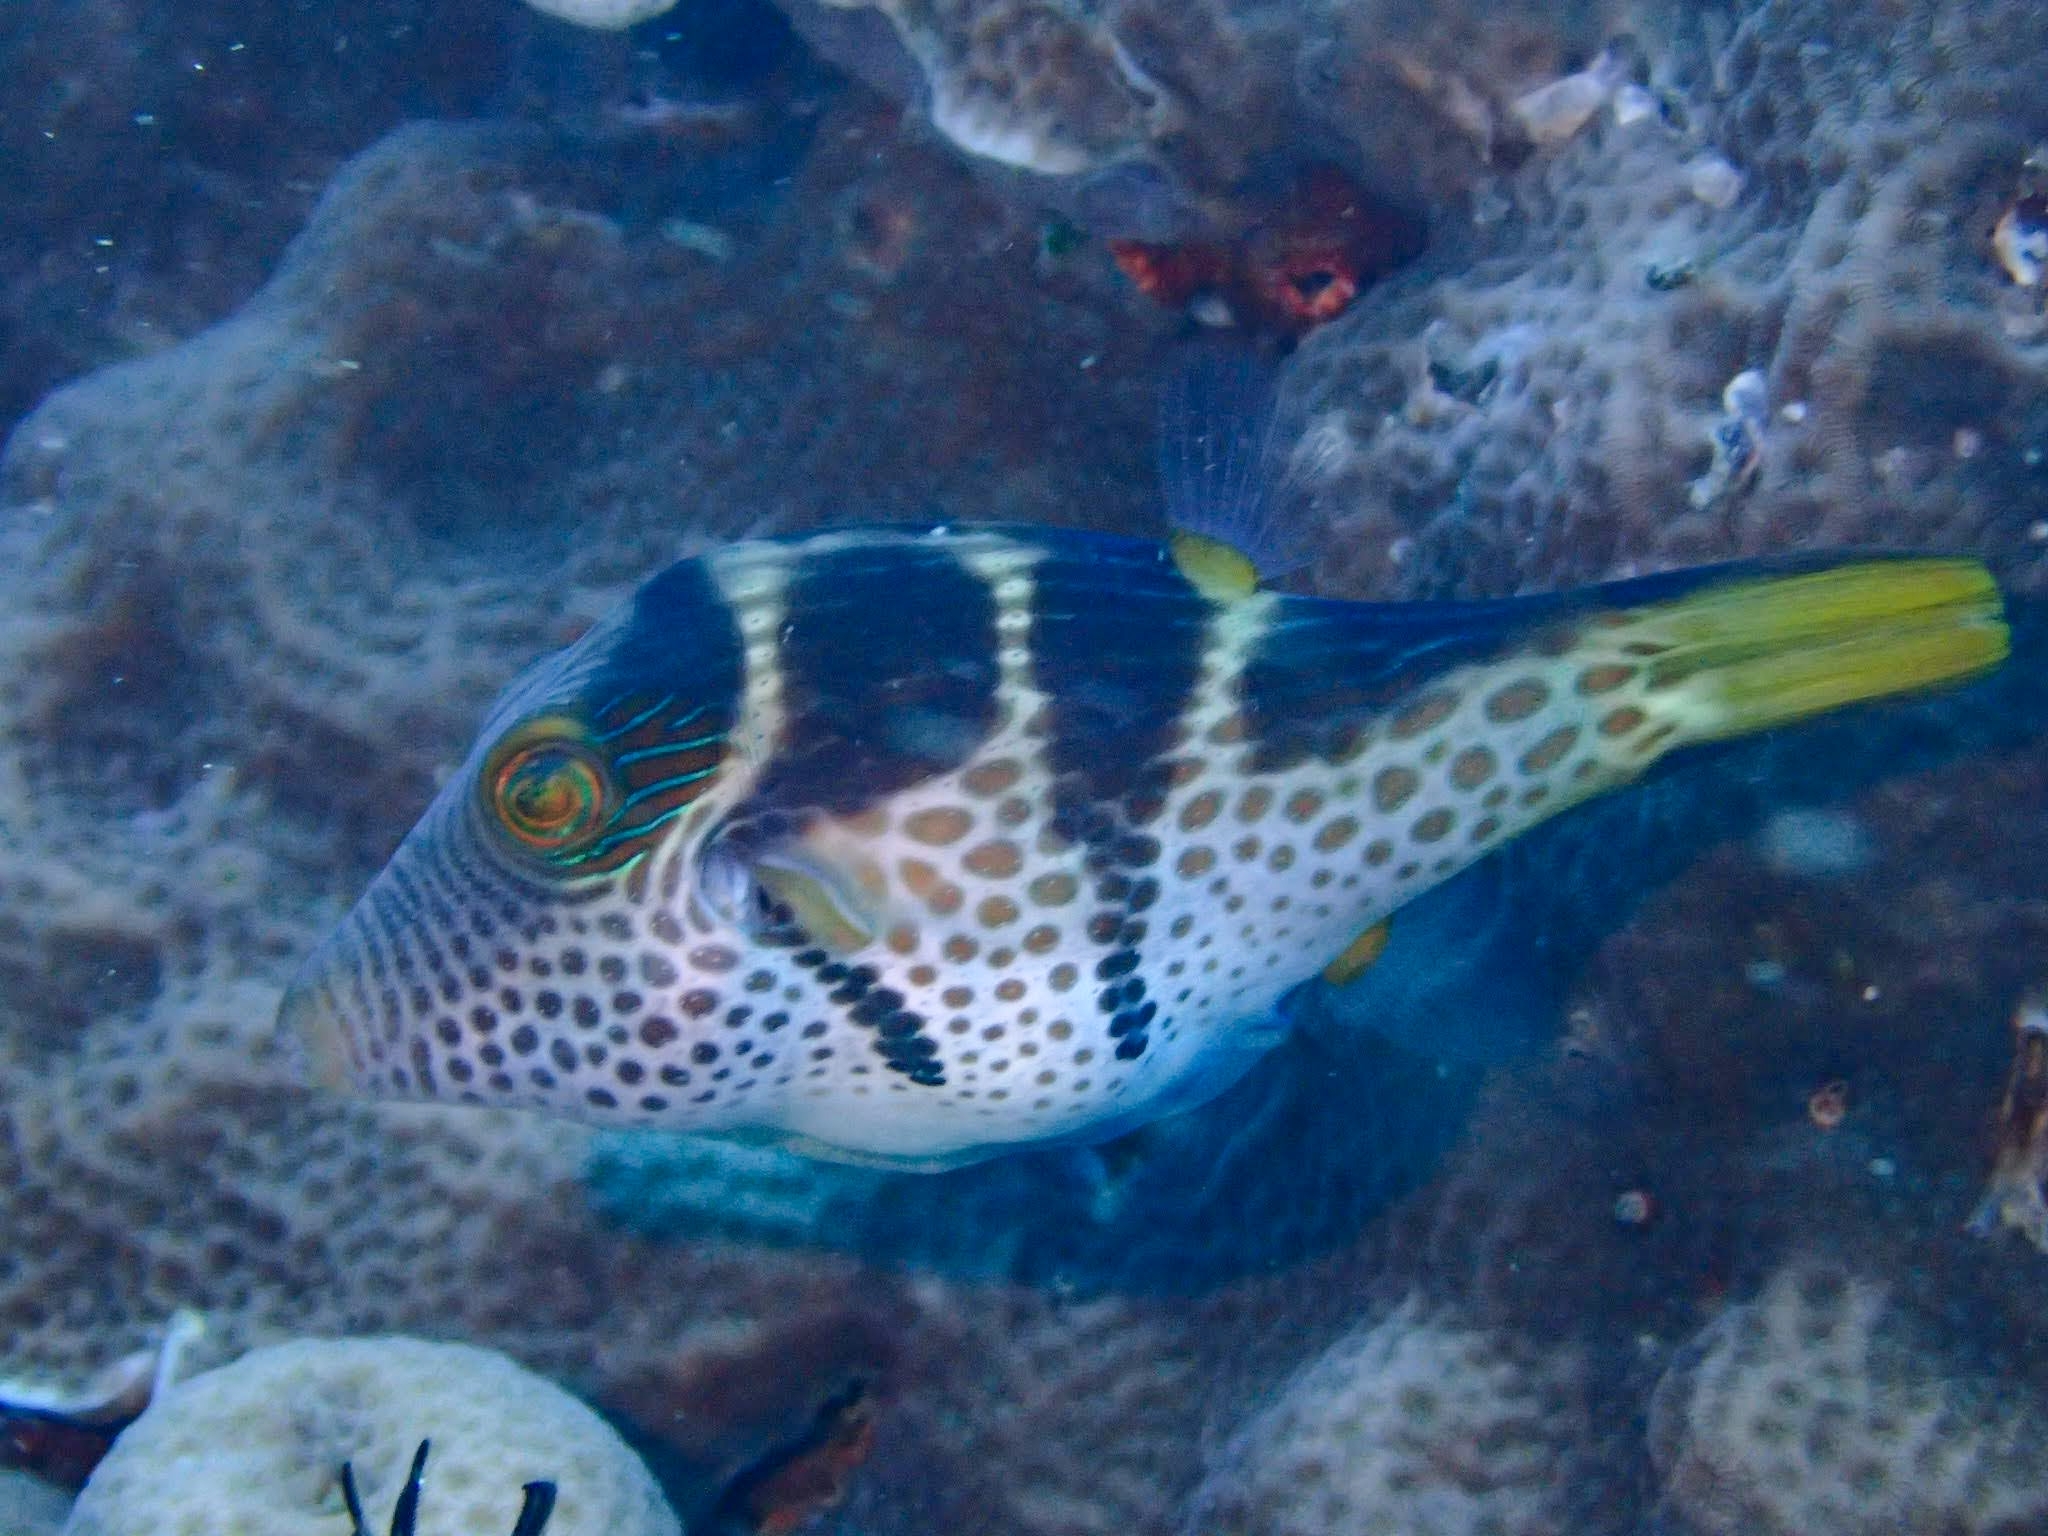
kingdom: Animalia
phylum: Chordata
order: Tetraodontiformes
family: Tetraodontidae
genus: Canthigaster
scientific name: Canthigaster valentini
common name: Banded toby
